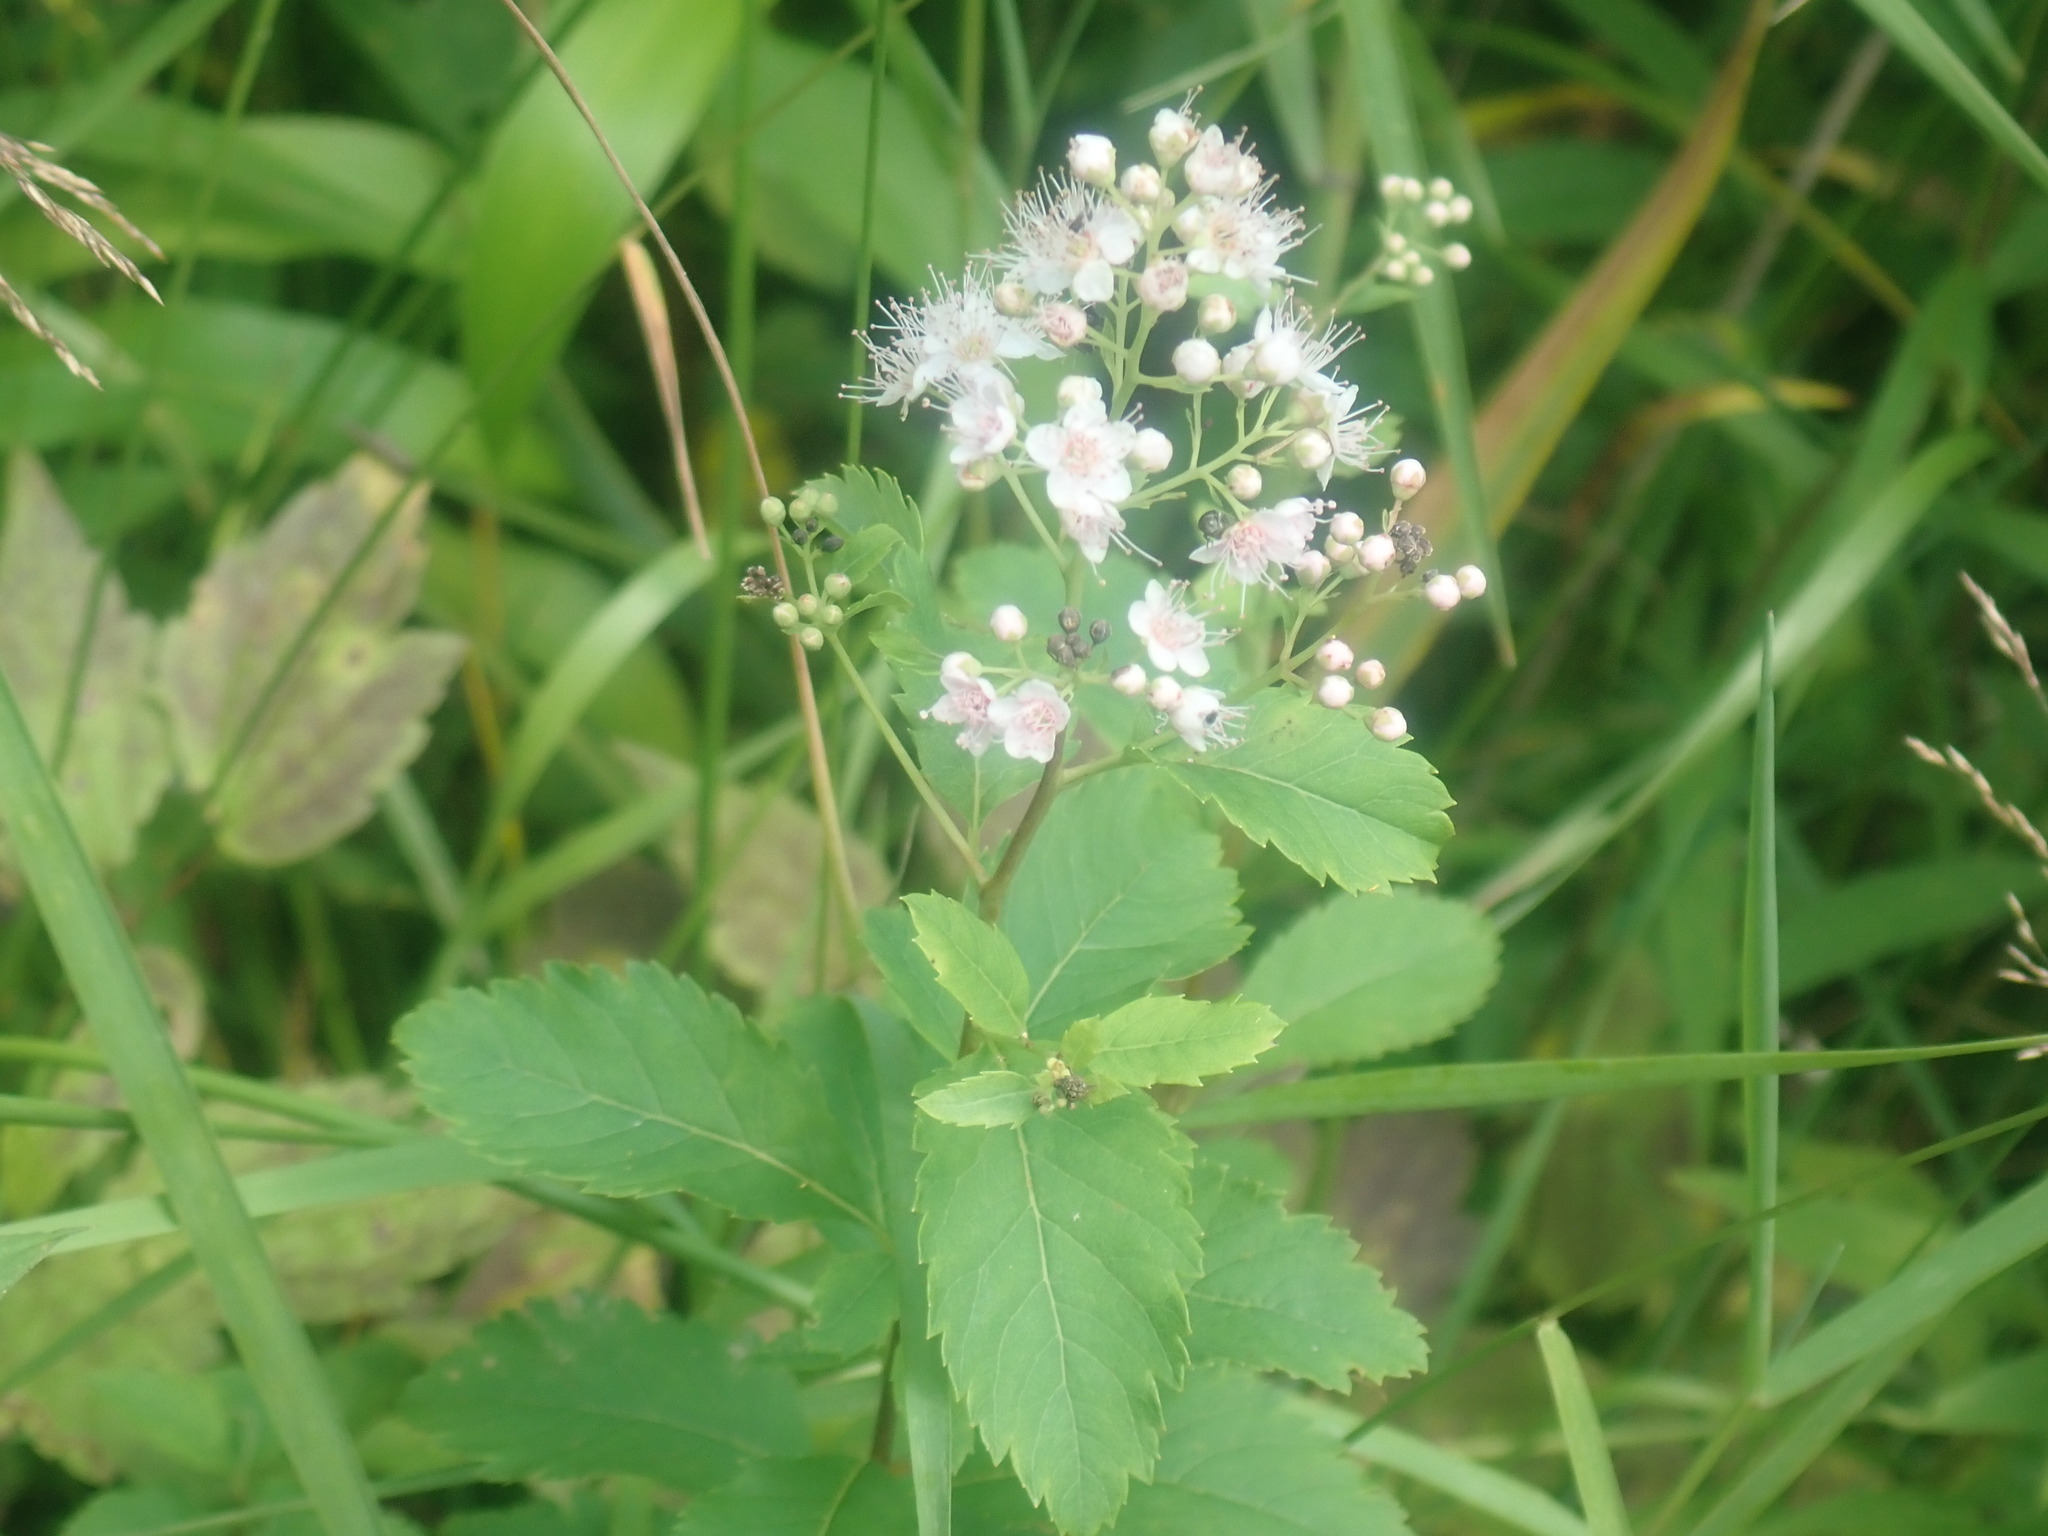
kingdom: Plantae
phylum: Tracheophyta
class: Magnoliopsida
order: Rosales
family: Rosaceae
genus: Spiraea
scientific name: Spiraea alba
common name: Pale bridewort
